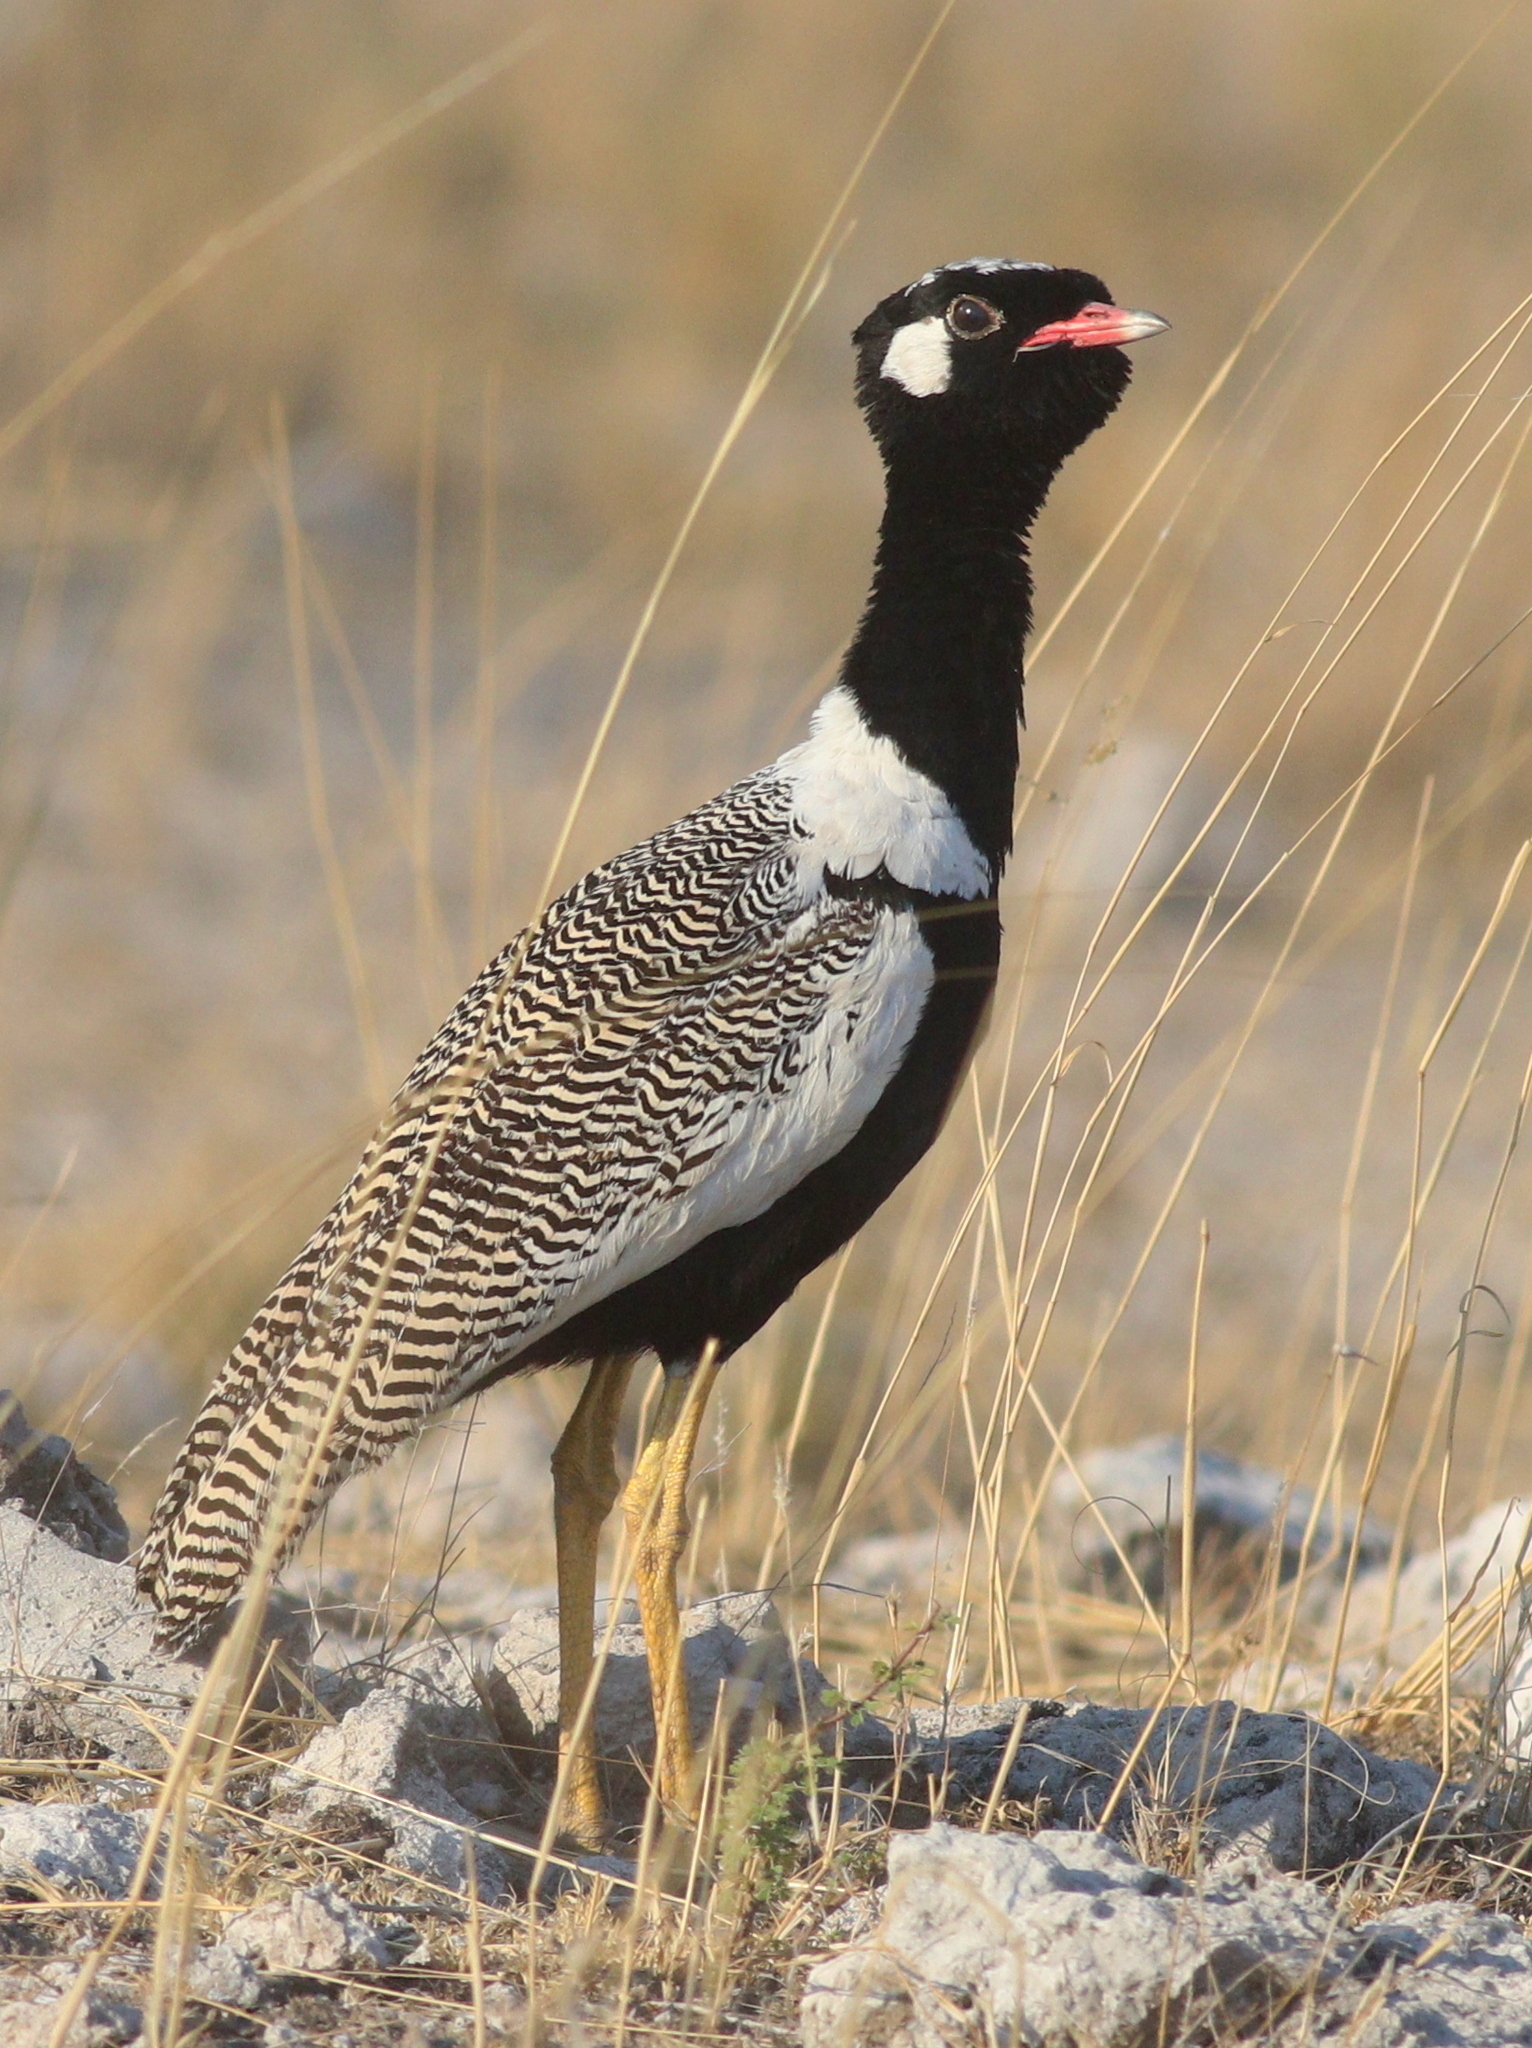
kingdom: Animalia
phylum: Chordata
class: Aves
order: Otidiformes
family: Otididae
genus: Afrotis
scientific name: Afrotis afraoides
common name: Northern black korhaan
